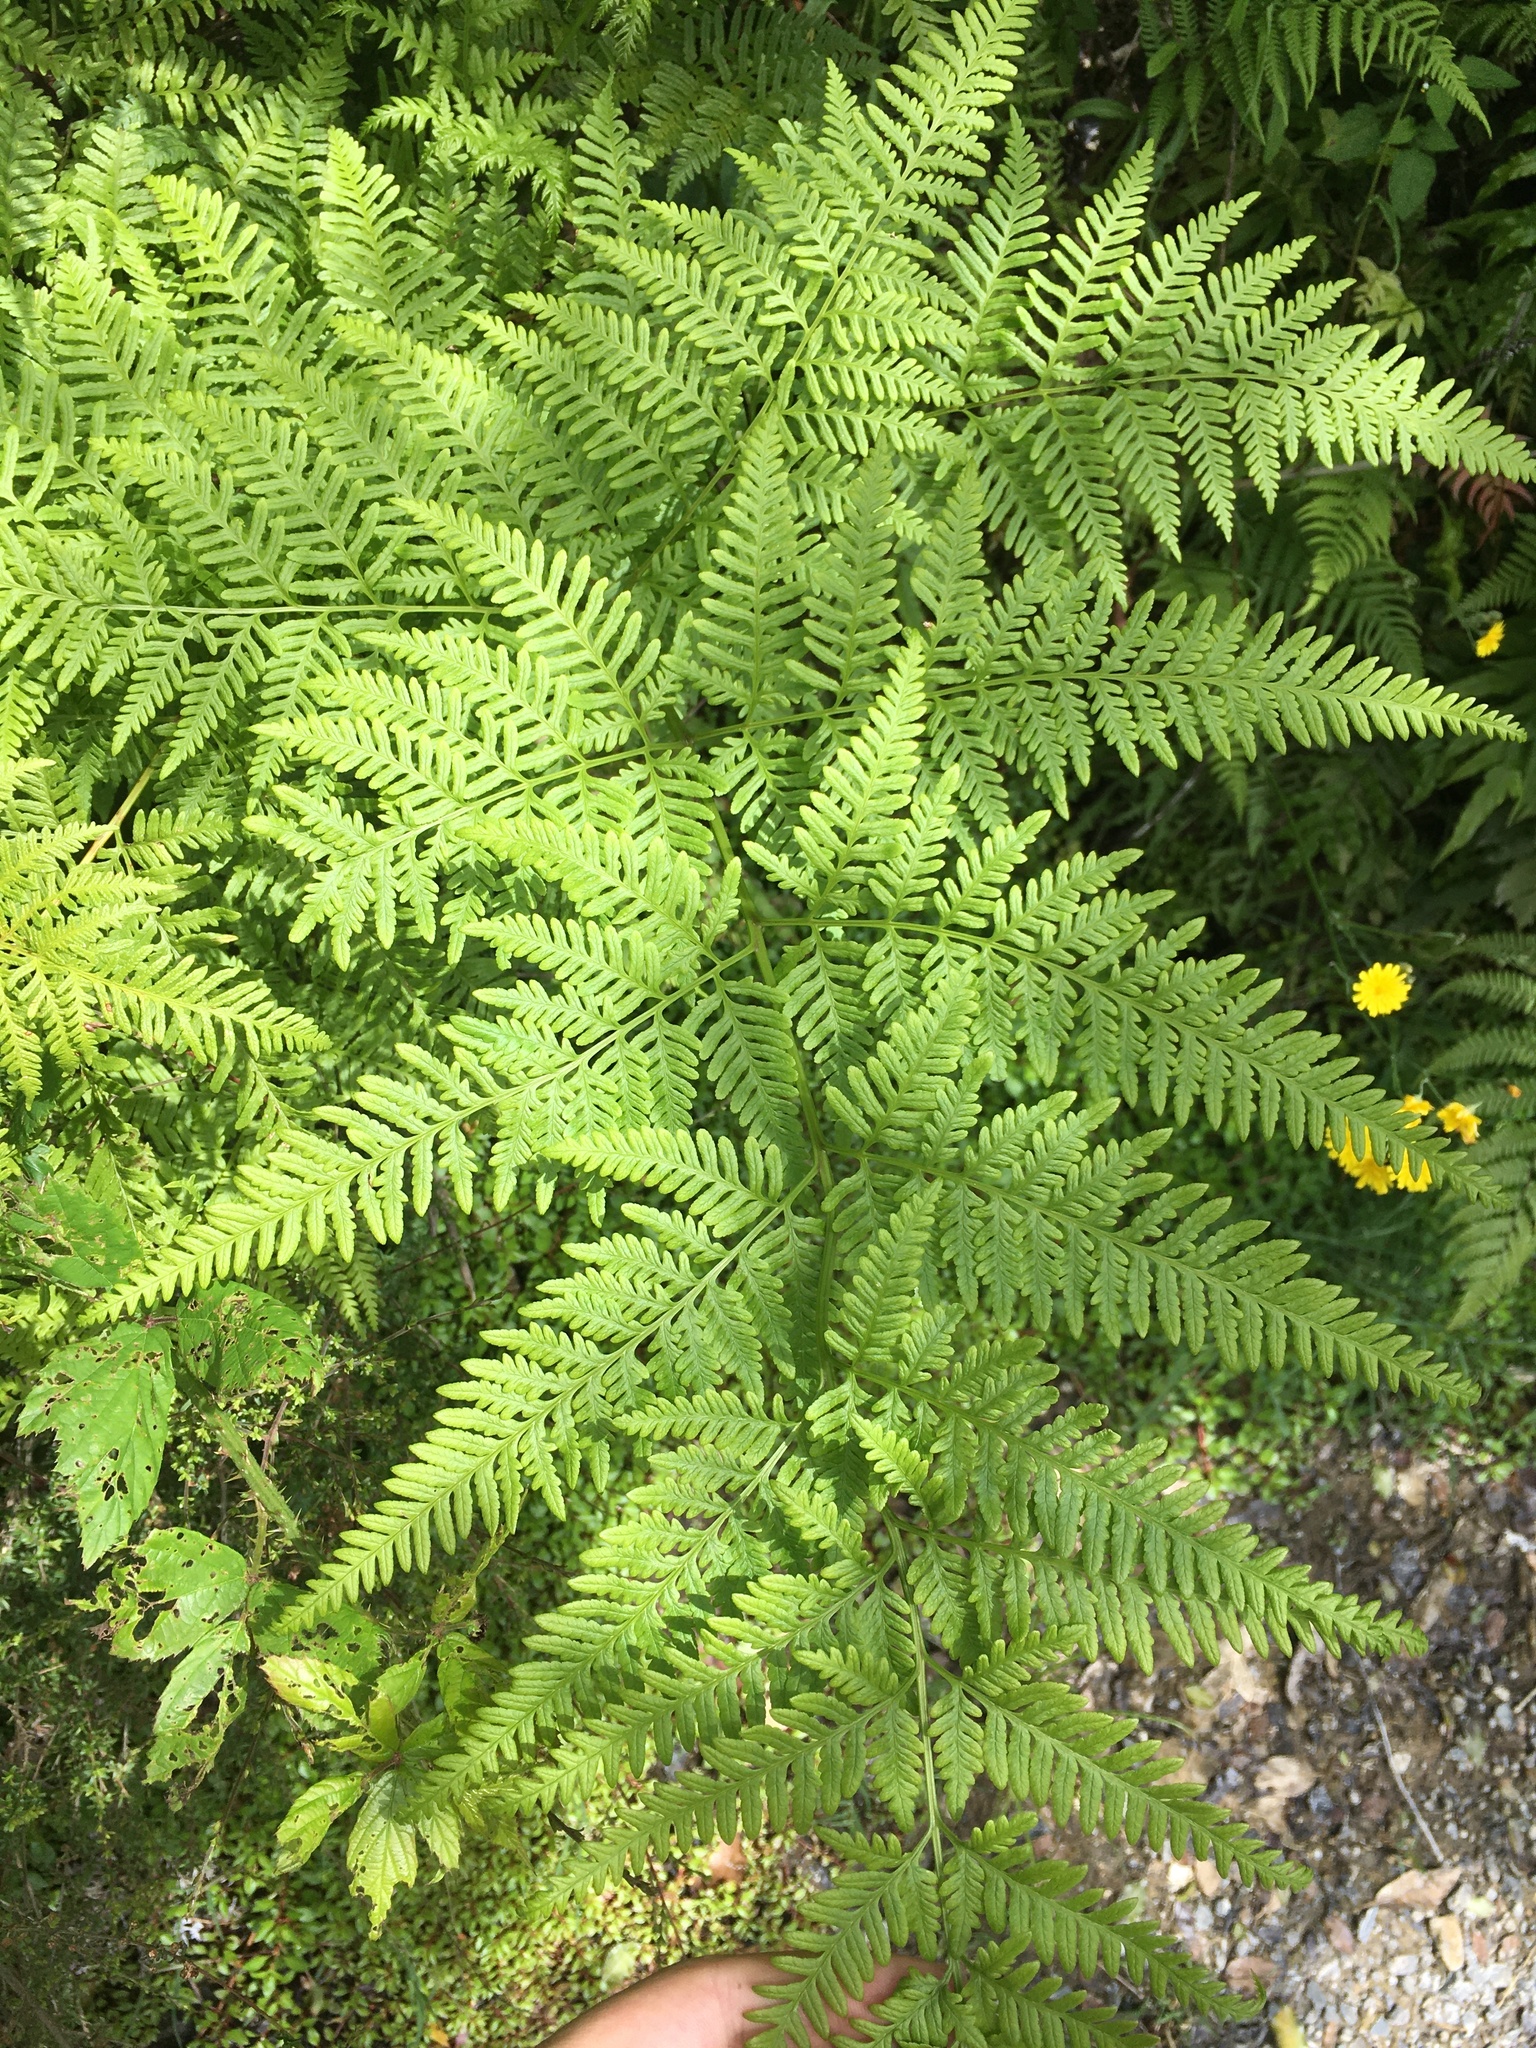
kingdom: Plantae
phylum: Tracheophyta
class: Polypodiopsida
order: Polypodiales
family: Pteridaceae
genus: Pteris
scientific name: Pteris tremula
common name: Australian brake
